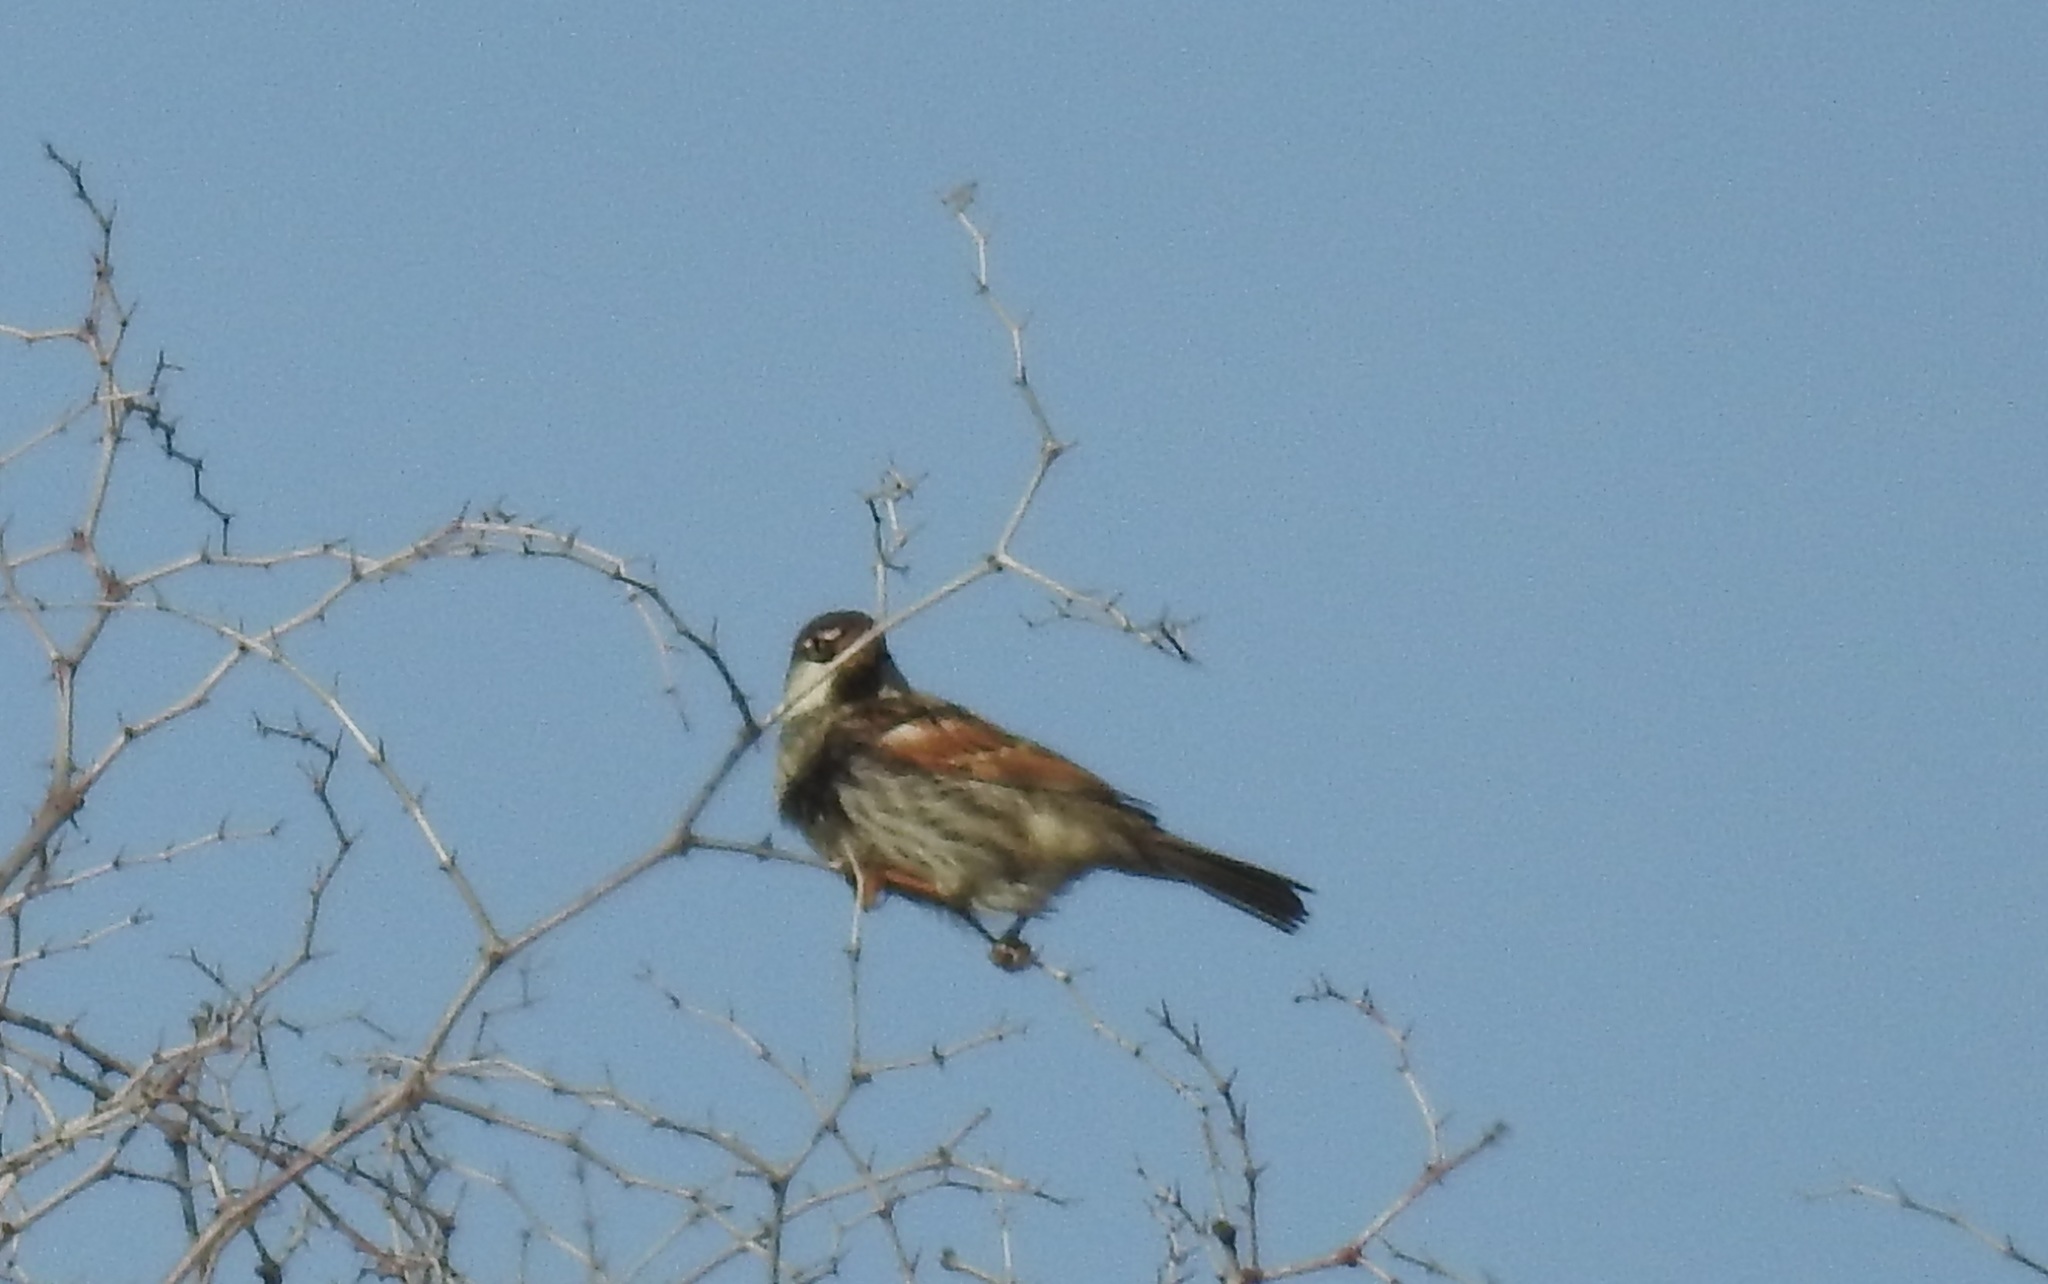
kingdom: Animalia
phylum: Chordata
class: Aves
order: Passeriformes
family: Passeridae
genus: Passer
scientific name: Passer hispaniolensis
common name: Spanish sparrow
